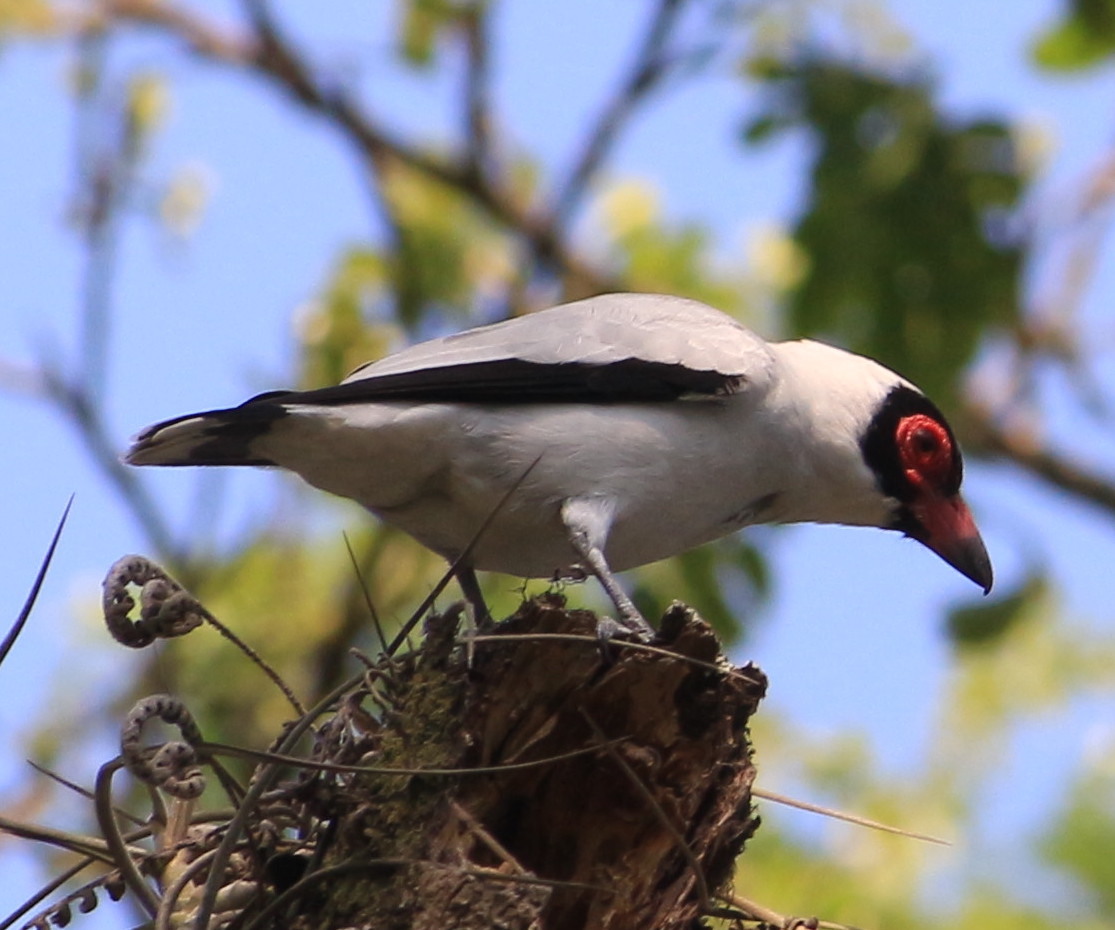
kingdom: Animalia
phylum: Chordata
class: Aves
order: Passeriformes
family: Cotingidae
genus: Tityra
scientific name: Tityra semifasciata
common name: Masked tityra
